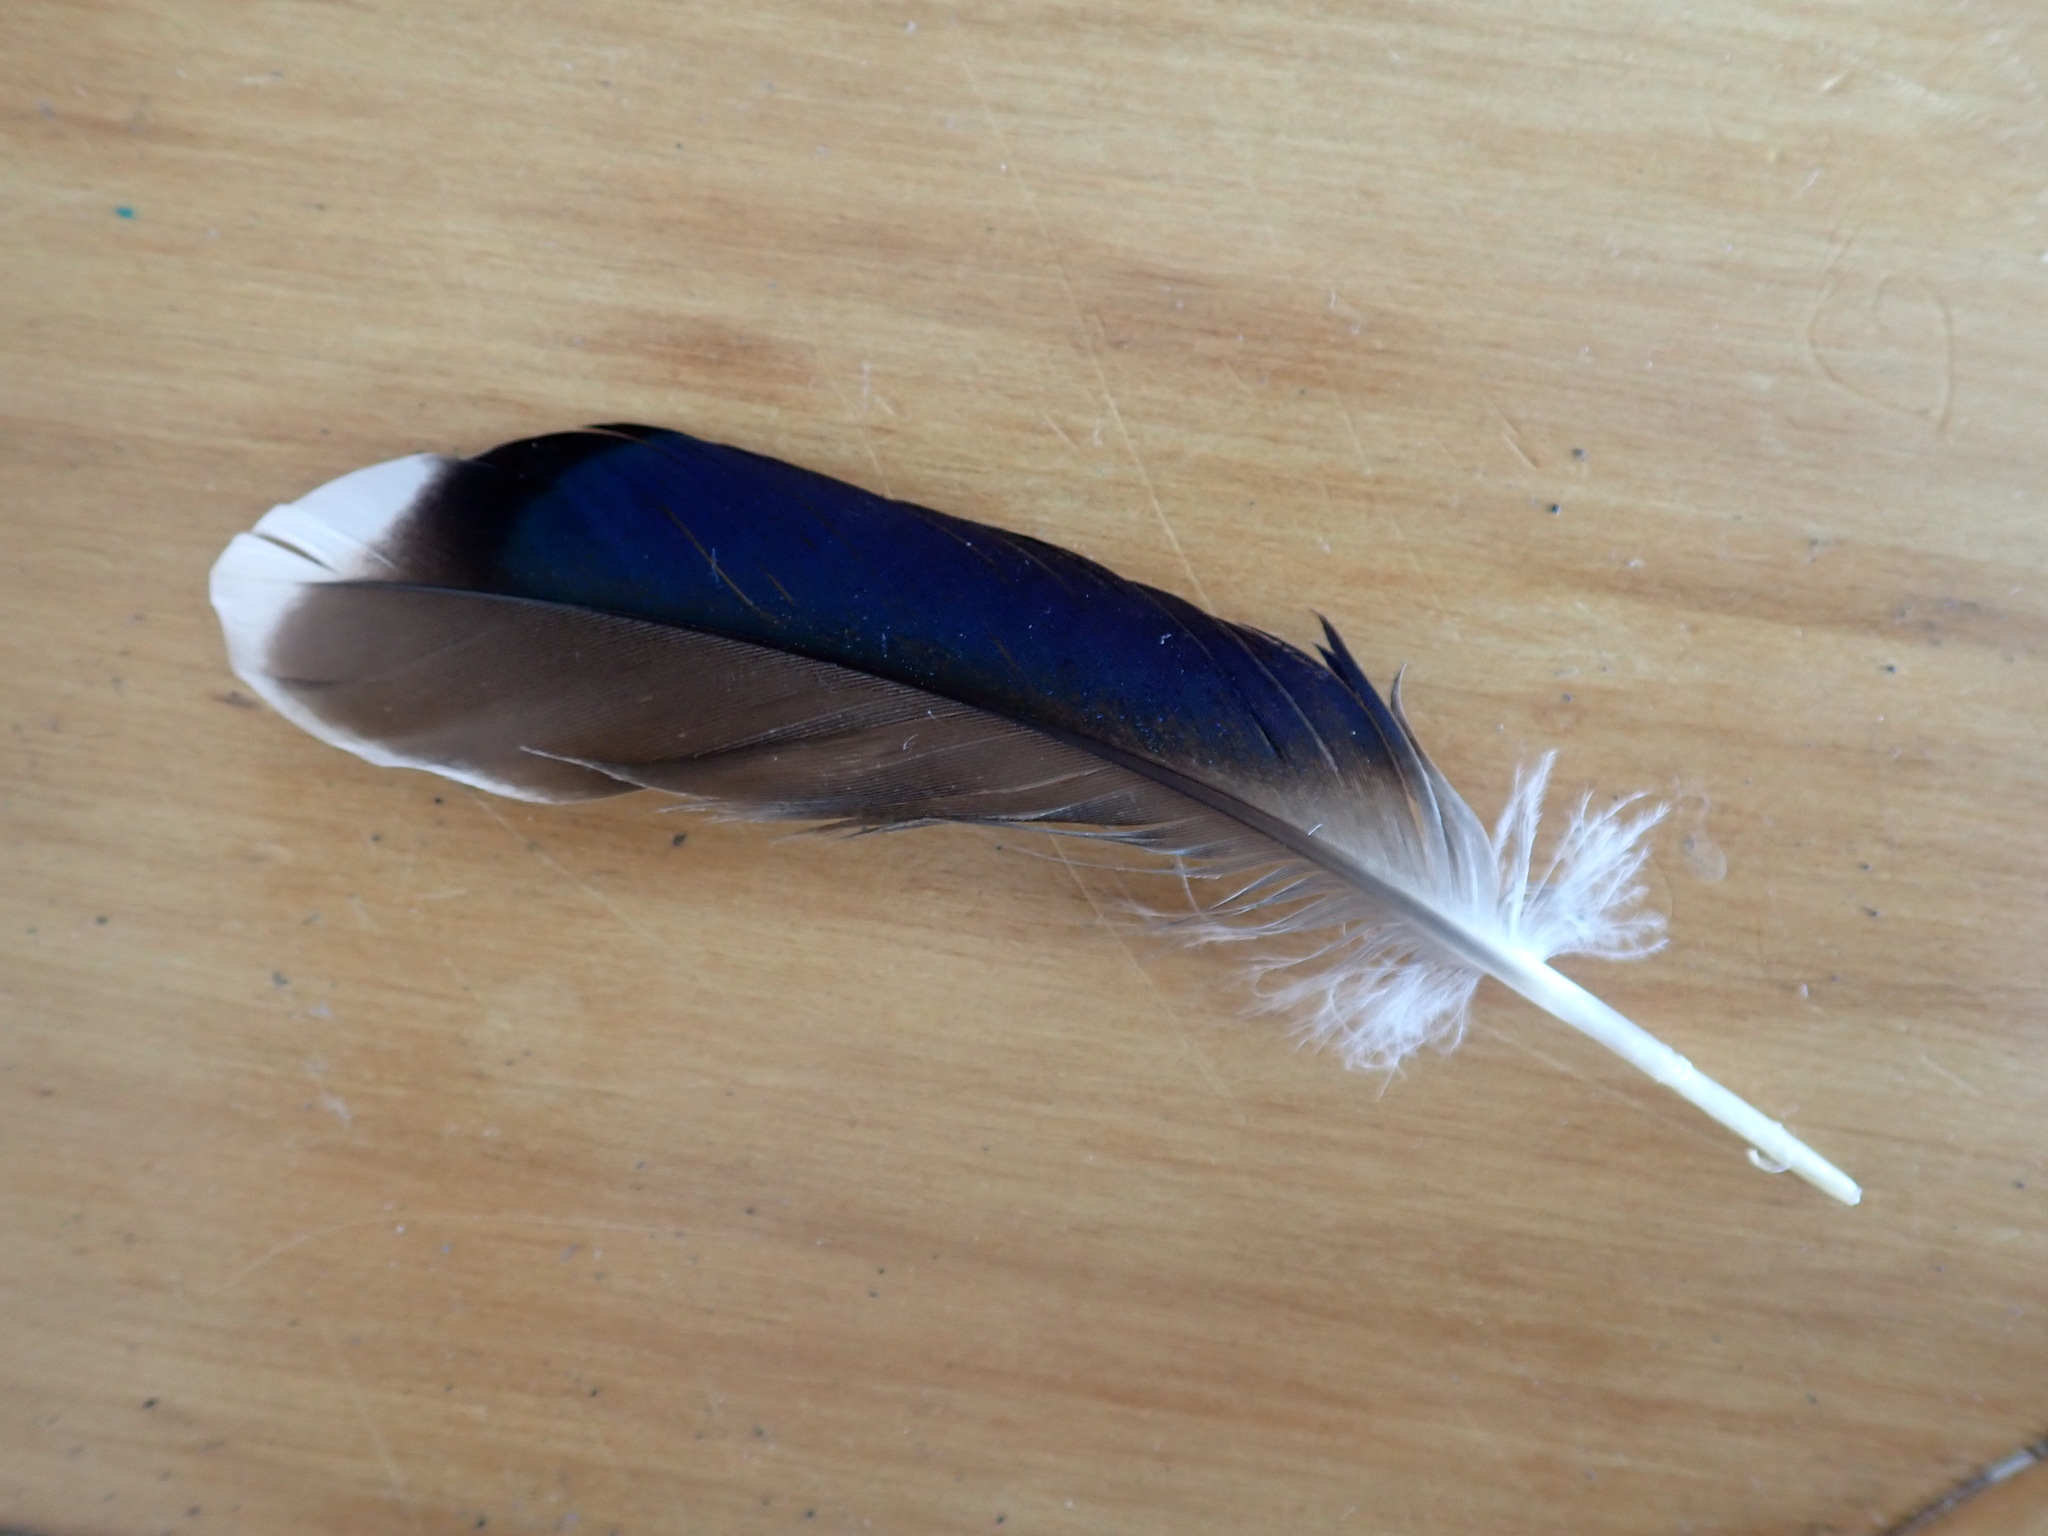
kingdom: Animalia
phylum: Chordata
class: Aves
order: Anseriformes
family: Anatidae
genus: Anas
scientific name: Anas platyrhynchos
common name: Mallard
